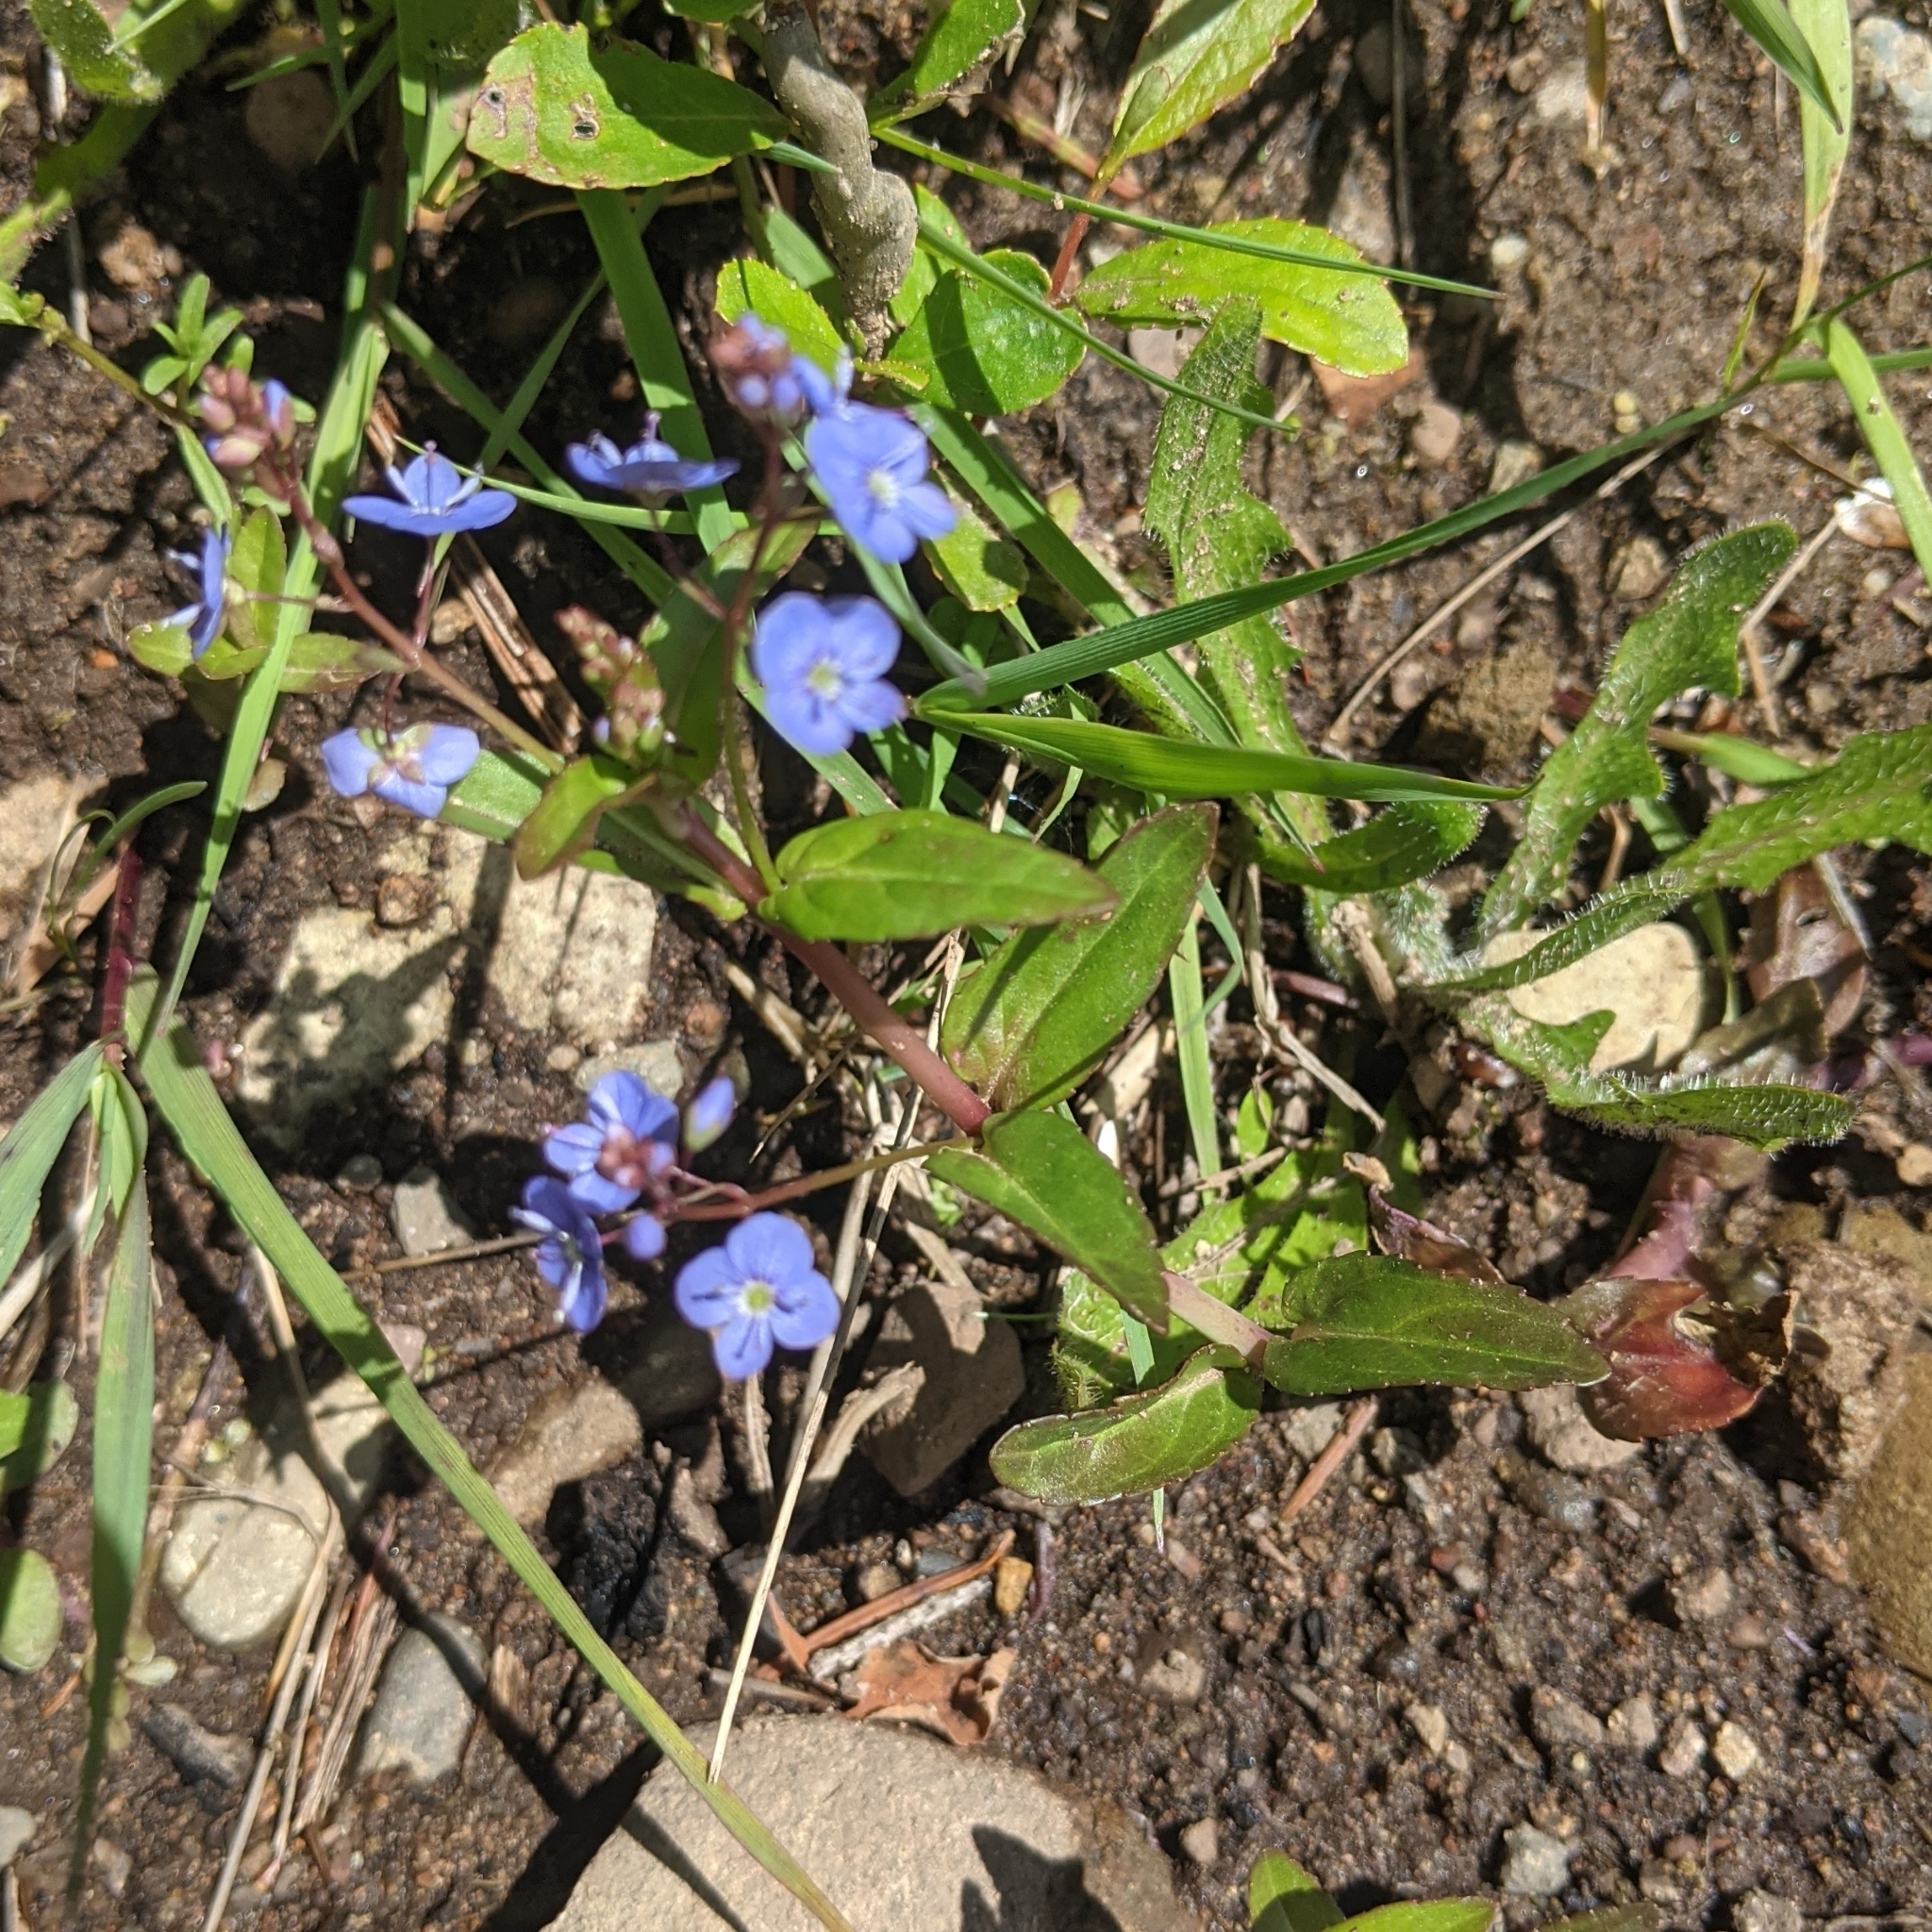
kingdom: Plantae
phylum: Tracheophyta
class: Magnoliopsida
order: Lamiales
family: Plantaginaceae
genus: Veronica
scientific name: Veronica americana
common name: American brooklime
